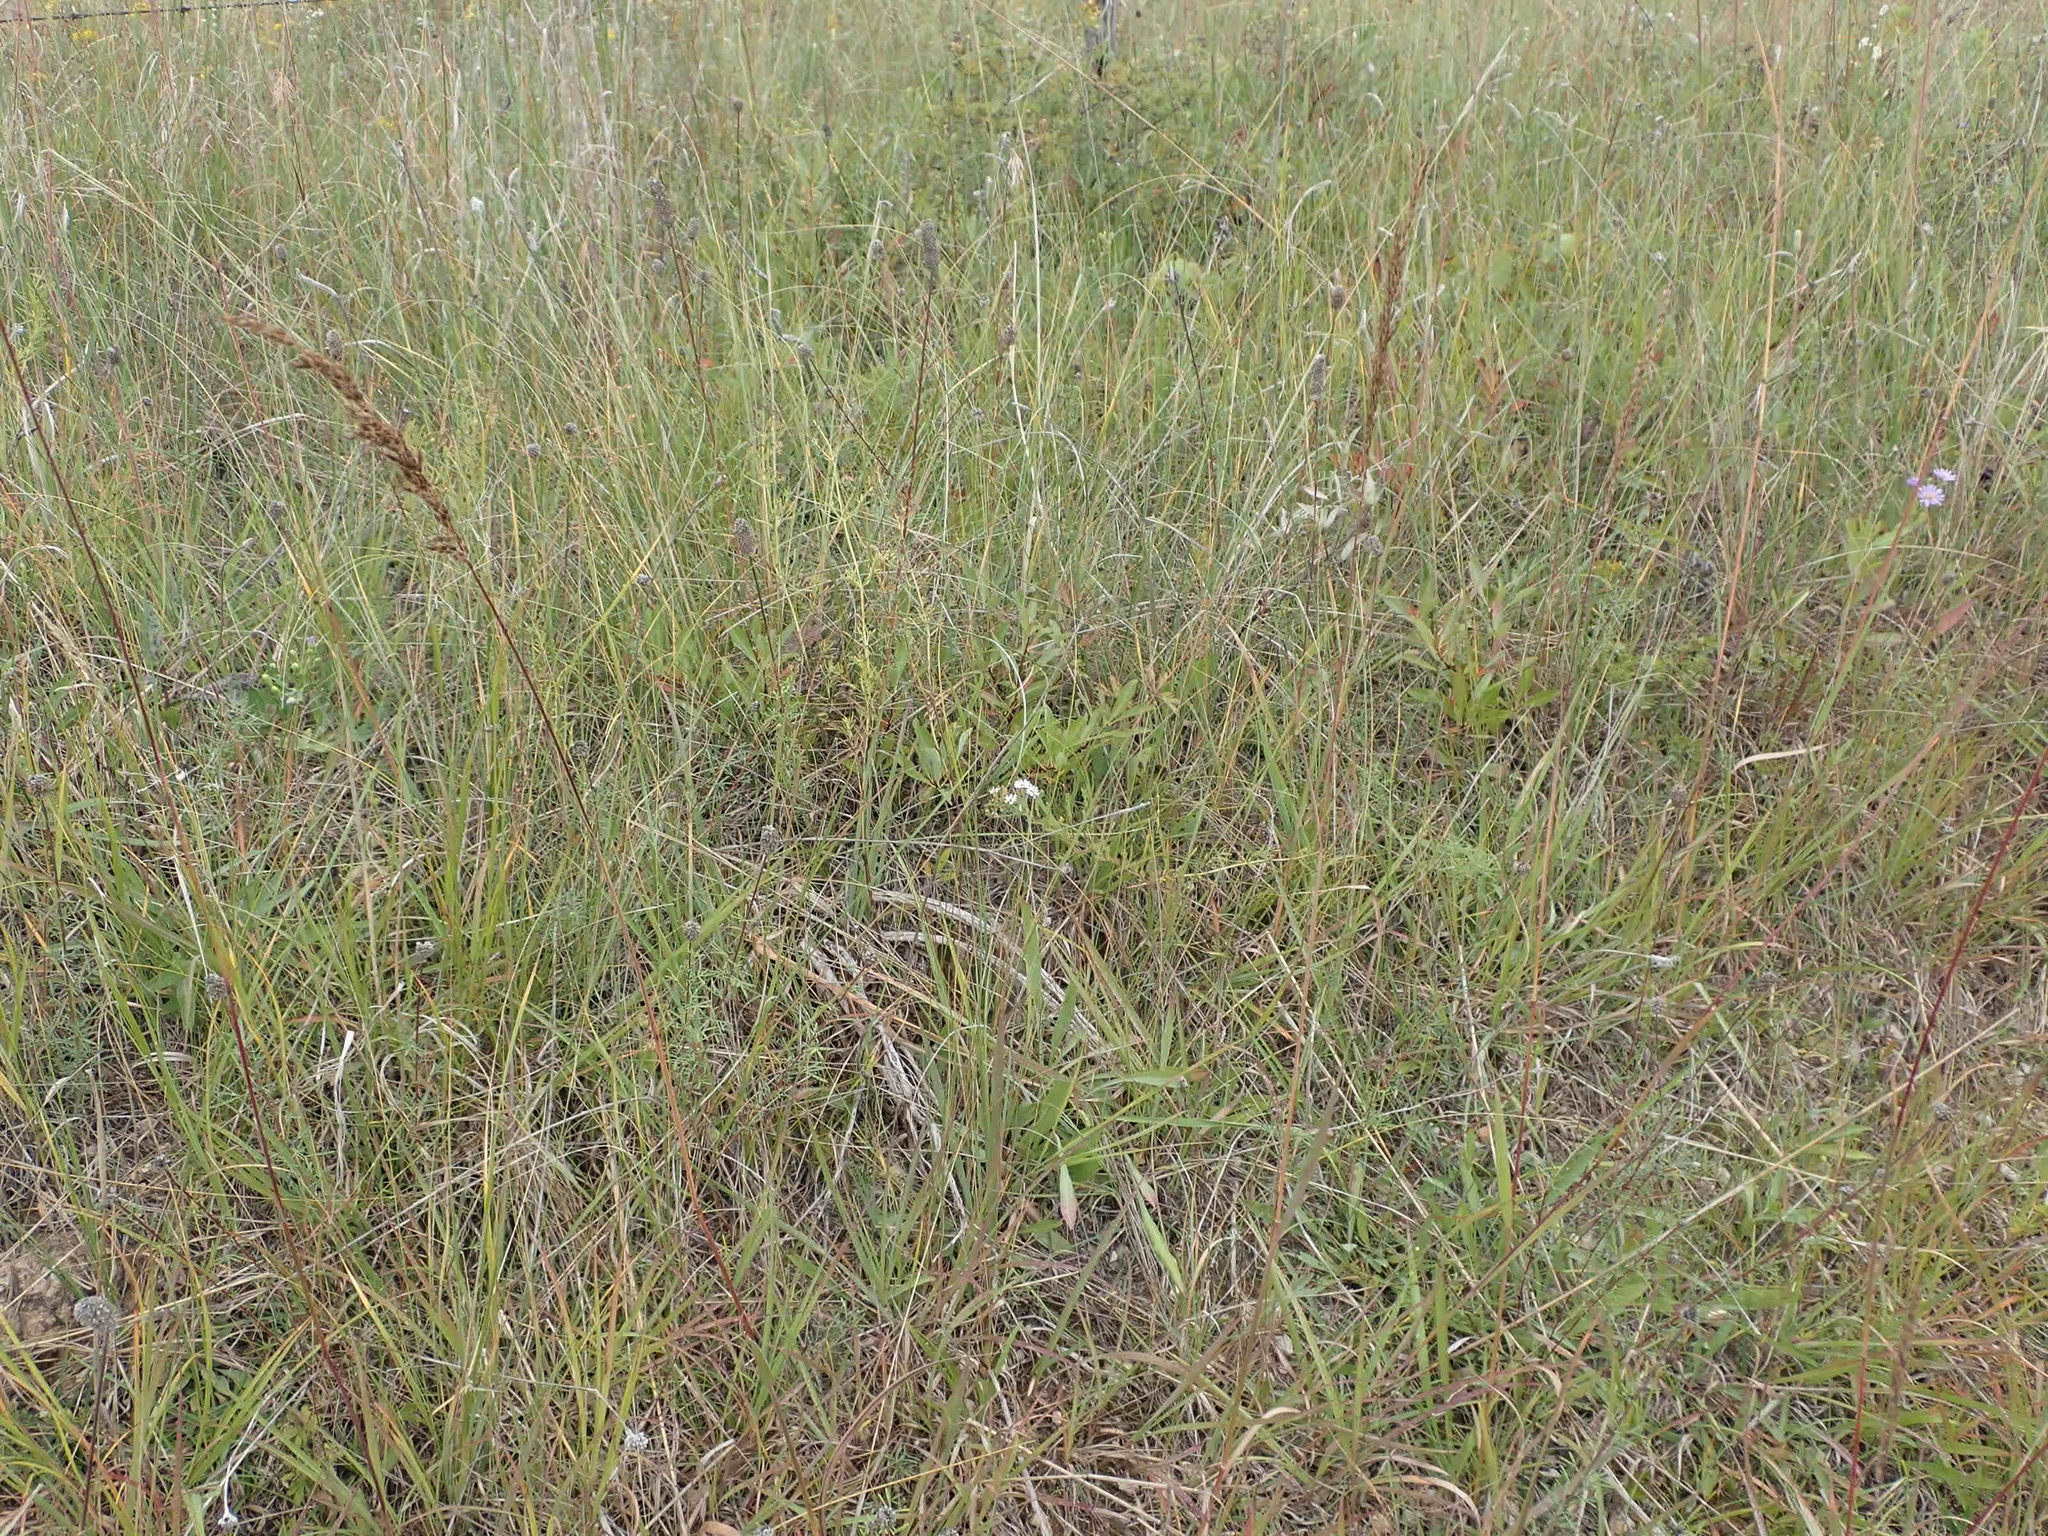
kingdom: Plantae
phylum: Tracheophyta
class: Liliopsida
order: Poales
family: Poaceae
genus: Sorghastrum
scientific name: Sorghastrum nutans
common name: Indian grass
